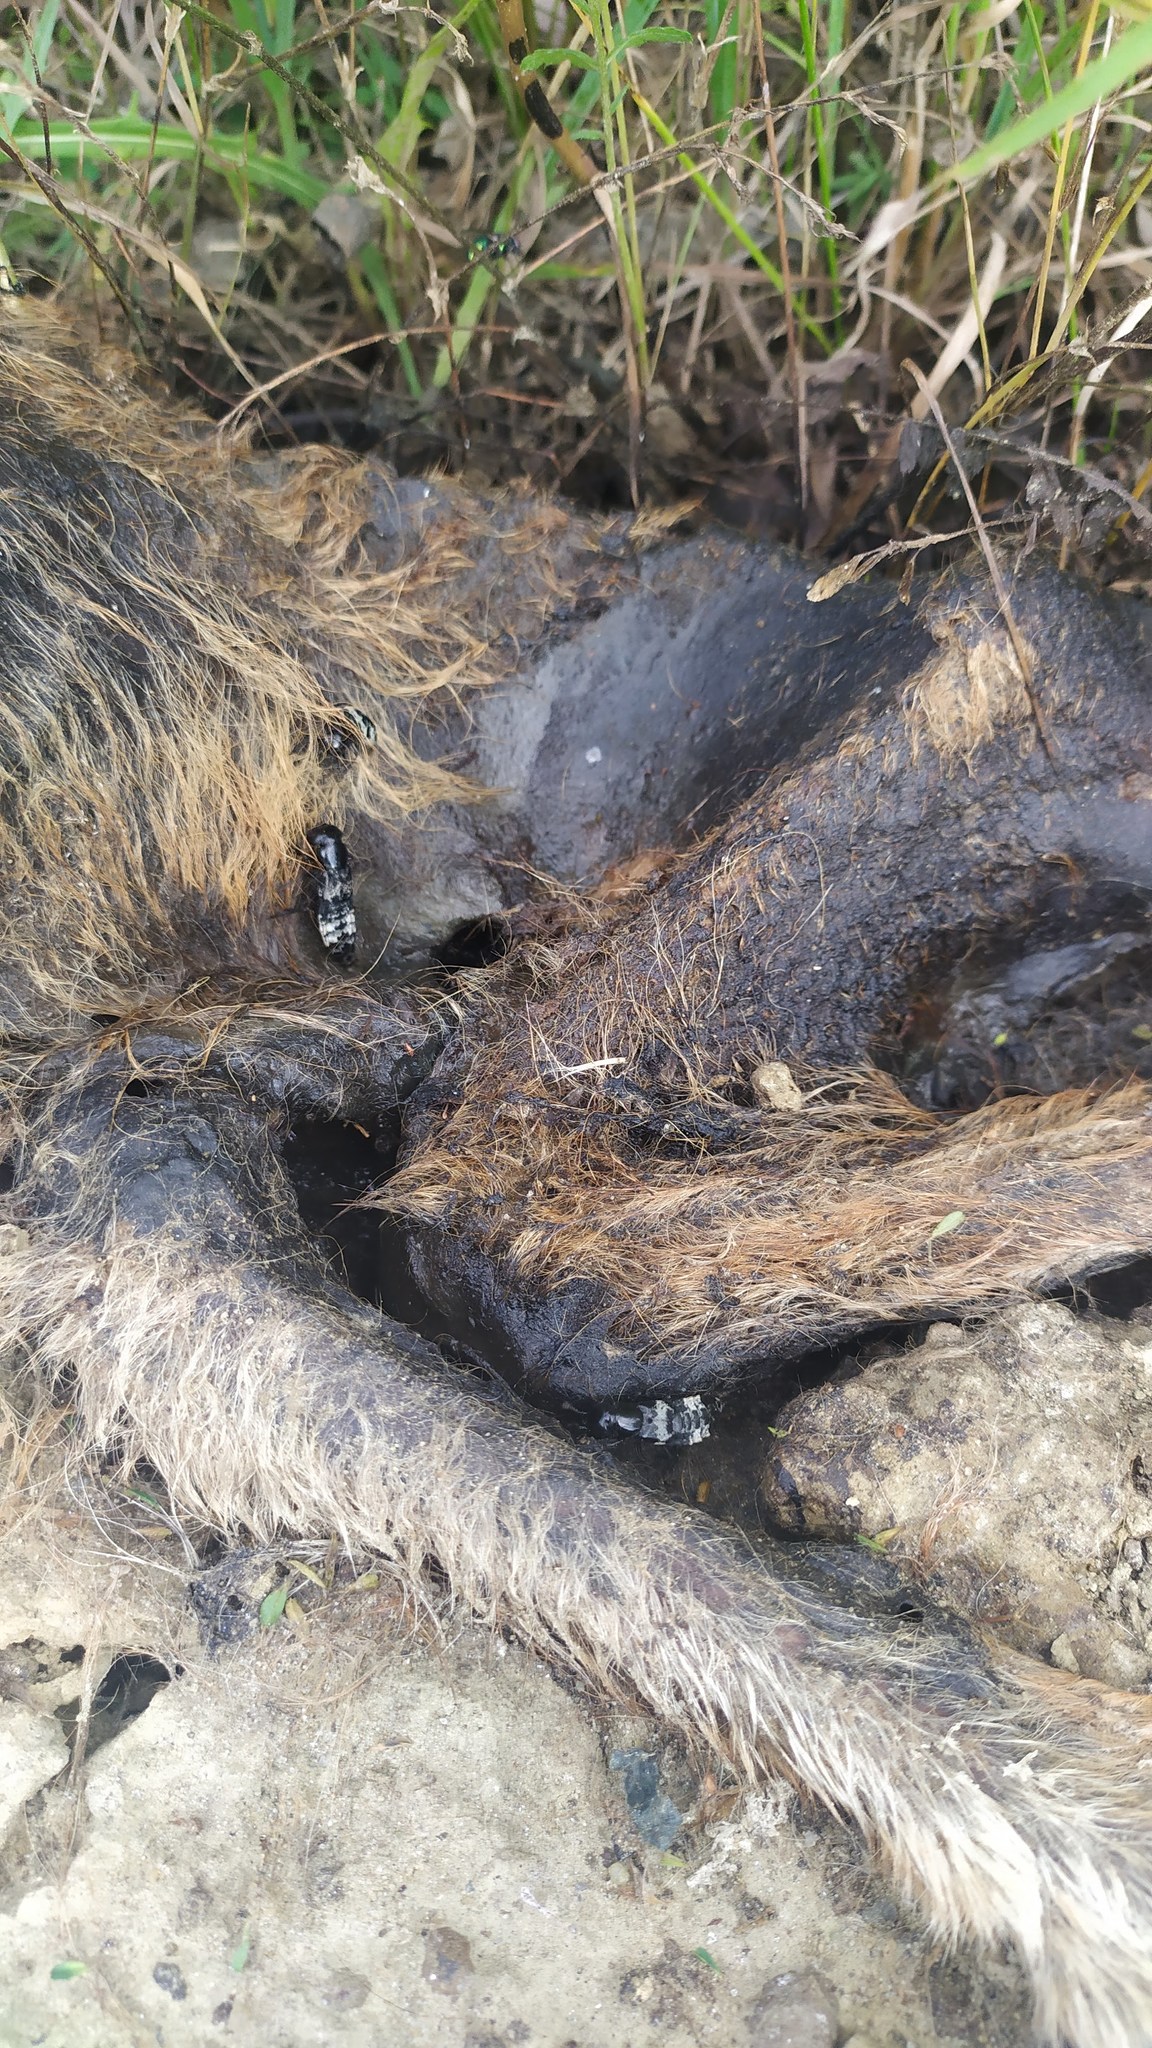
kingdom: Animalia
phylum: Arthropoda
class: Insecta
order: Coleoptera
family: Staphylinidae
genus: Creophilus
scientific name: Creophilus maxillosus
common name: Hairy rove beetle
